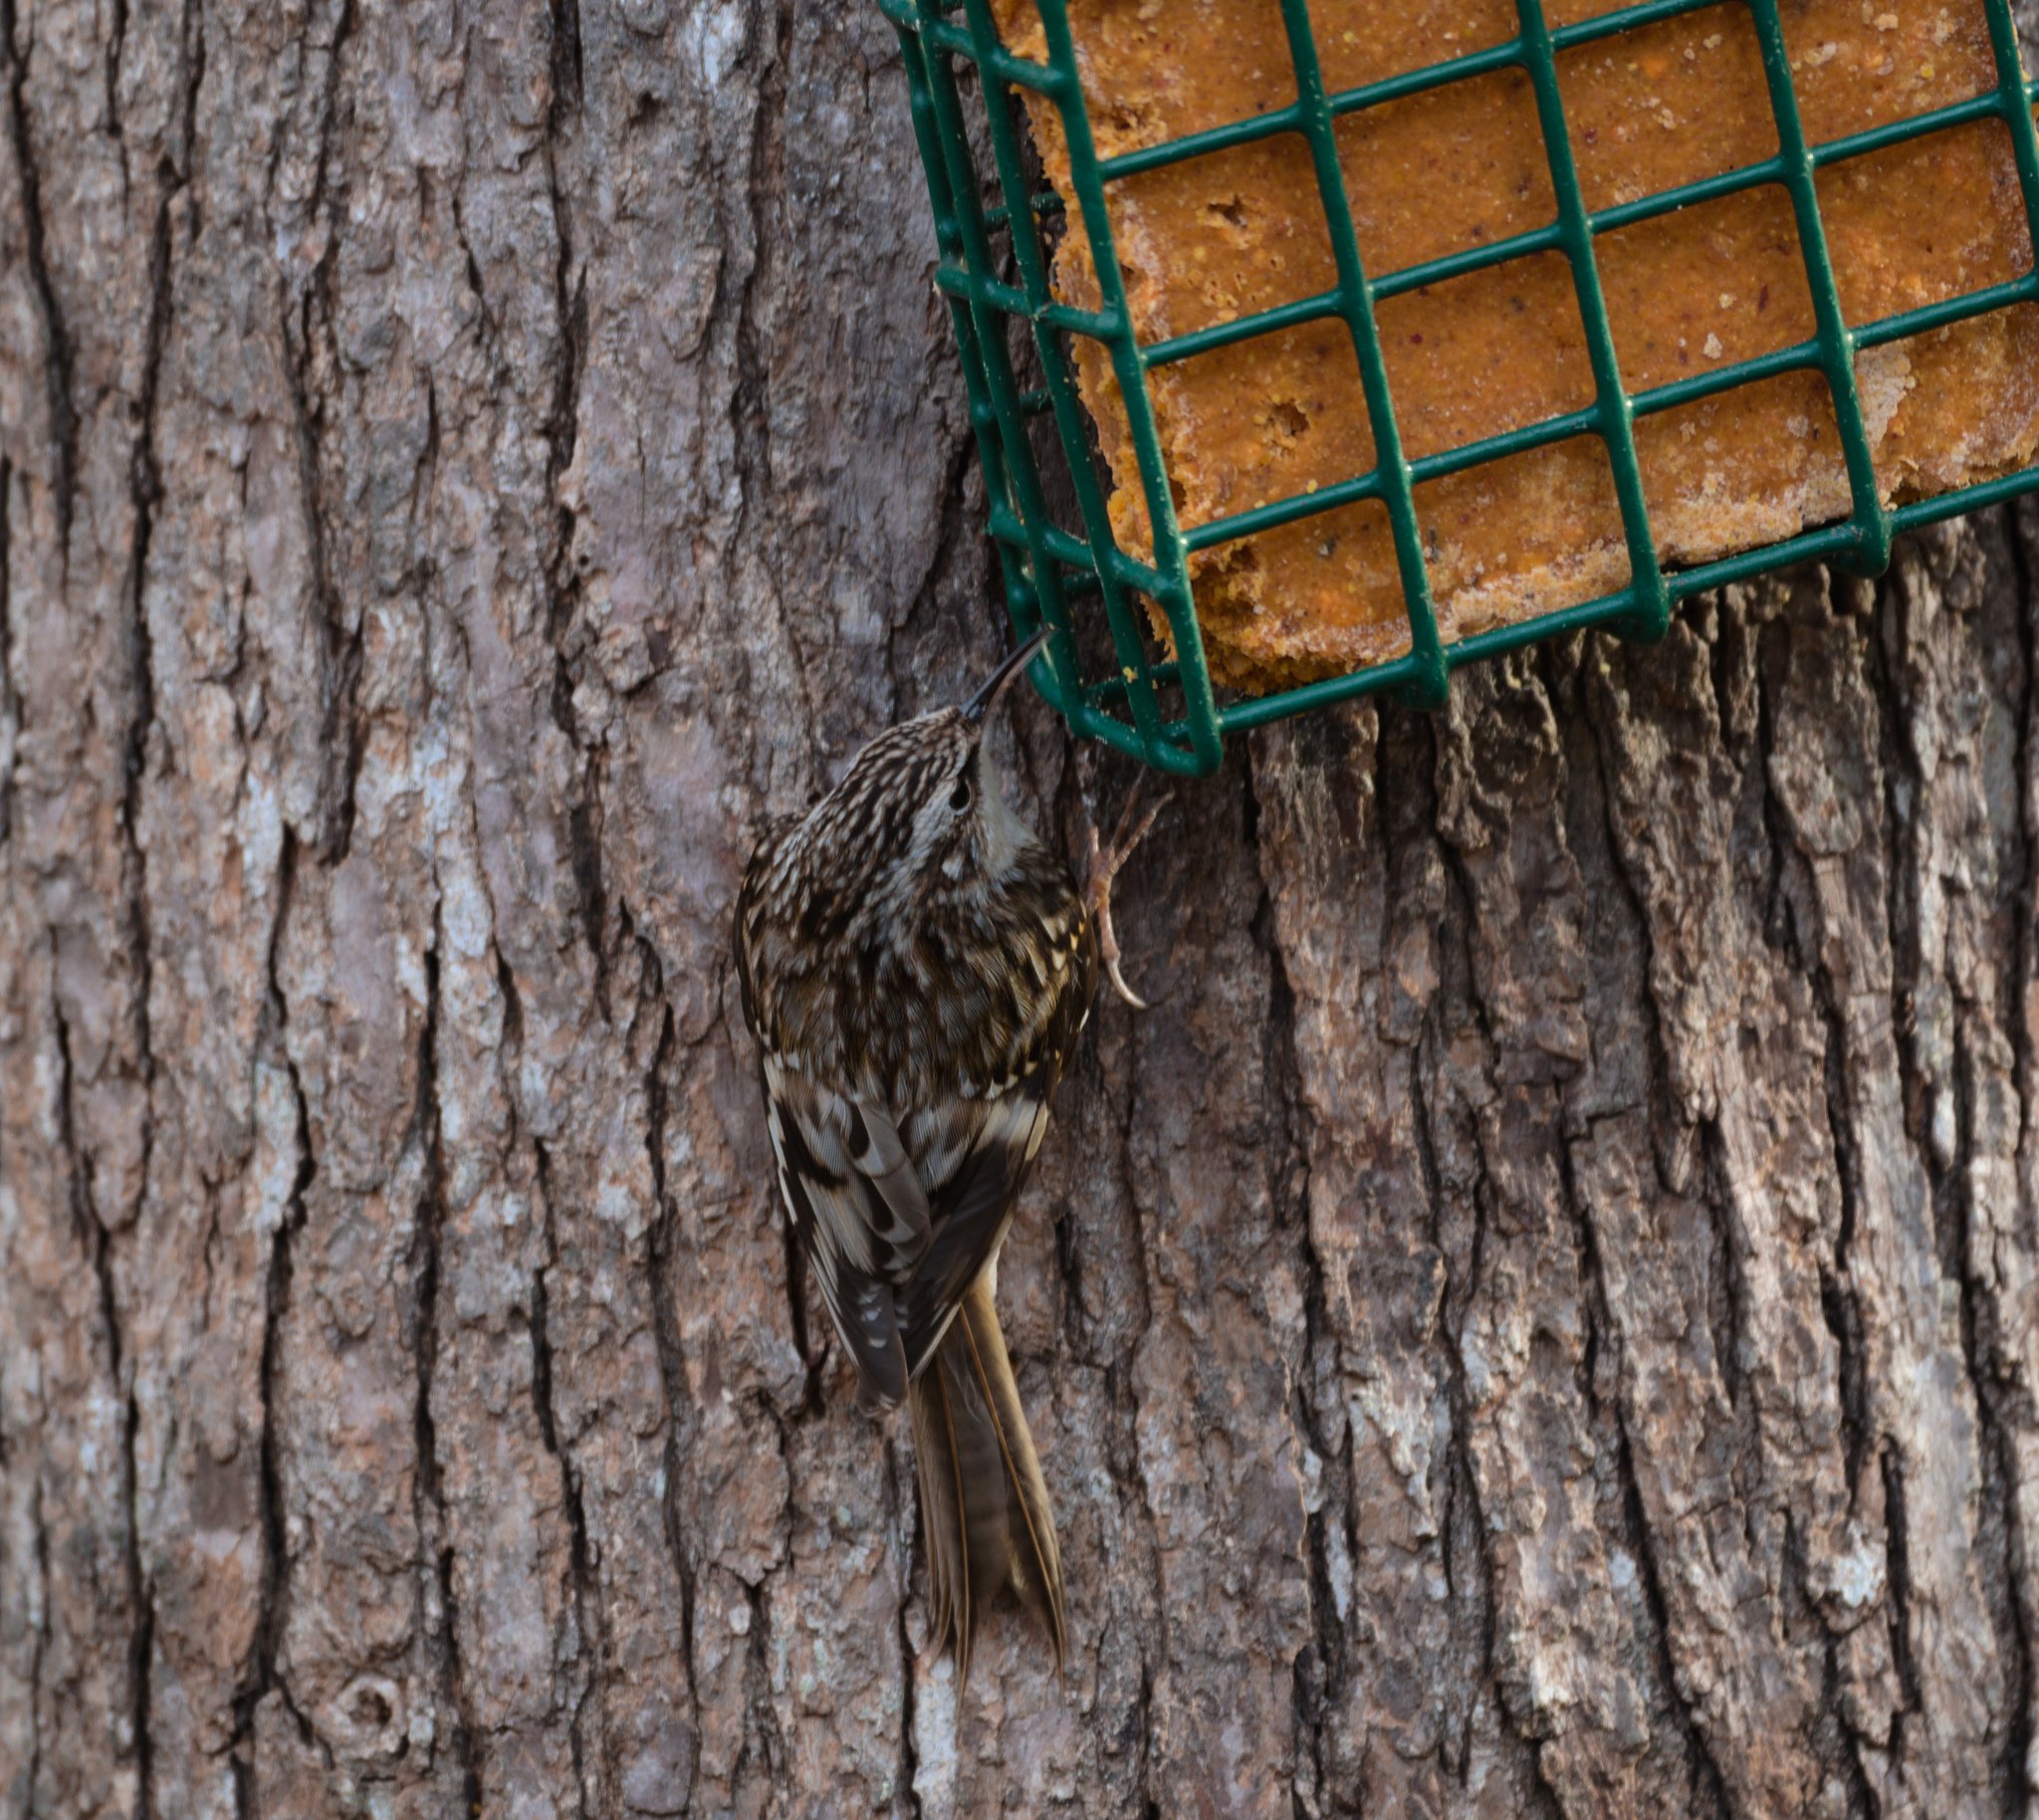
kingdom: Animalia
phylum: Chordata
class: Aves
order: Passeriformes
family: Certhiidae
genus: Certhia
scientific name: Certhia americana
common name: Brown creeper
